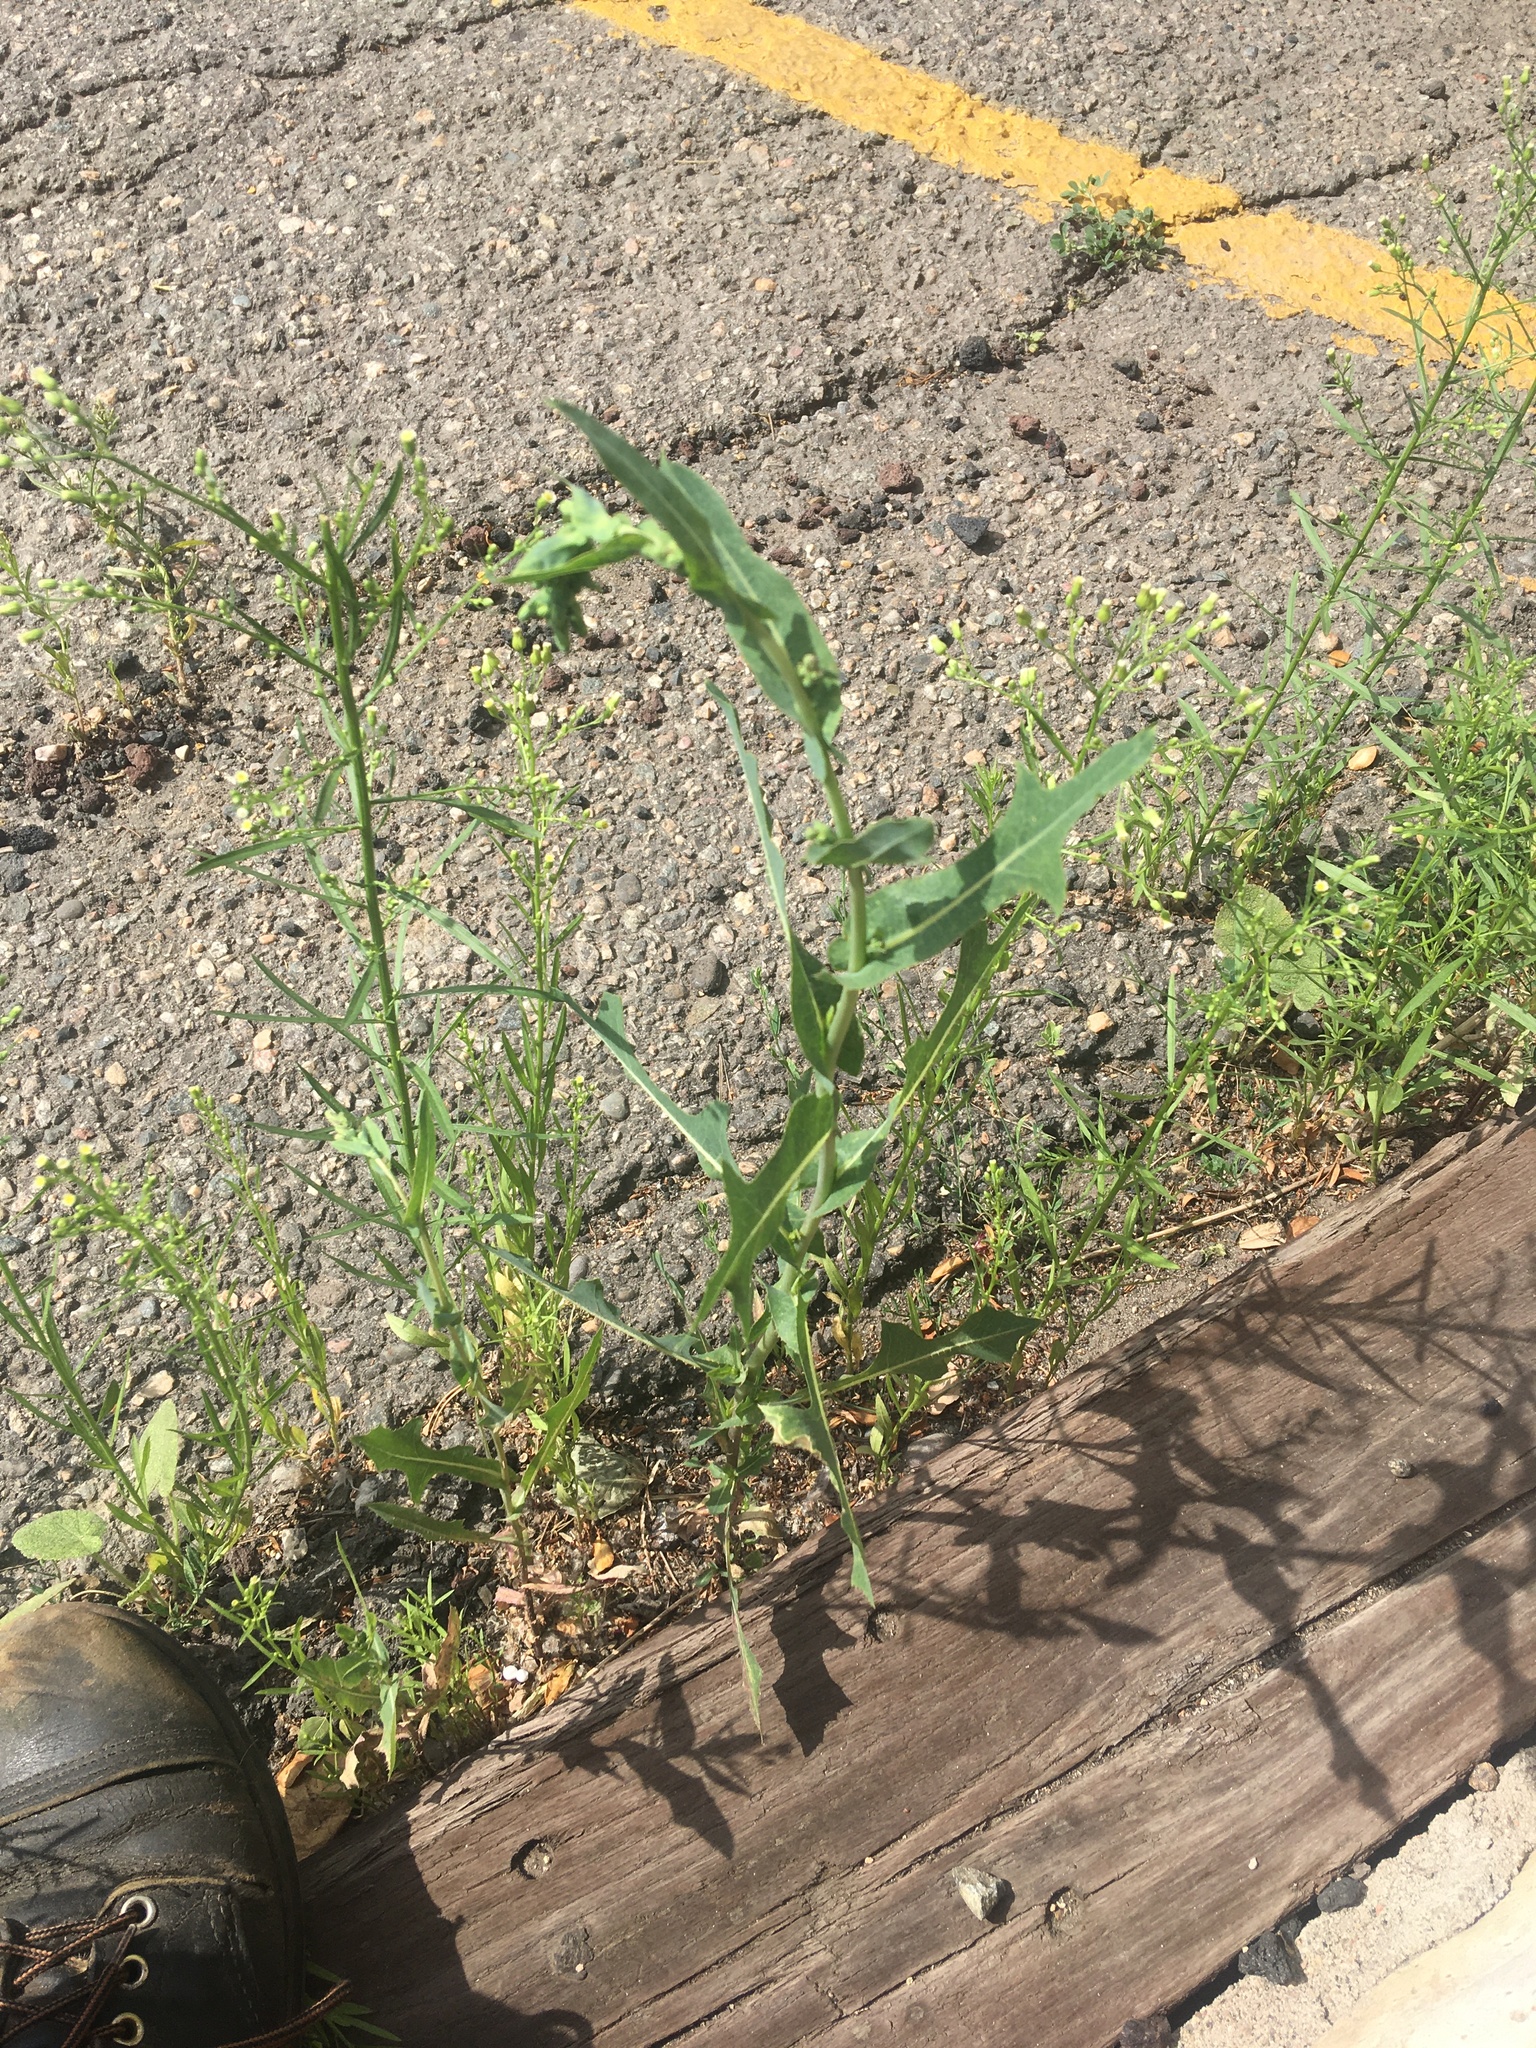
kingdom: Plantae
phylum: Tracheophyta
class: Magnoliopsida
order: Asterales
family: Asteraceae
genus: Lactuca
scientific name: Lactuca serriola
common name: Prickly lettuce
